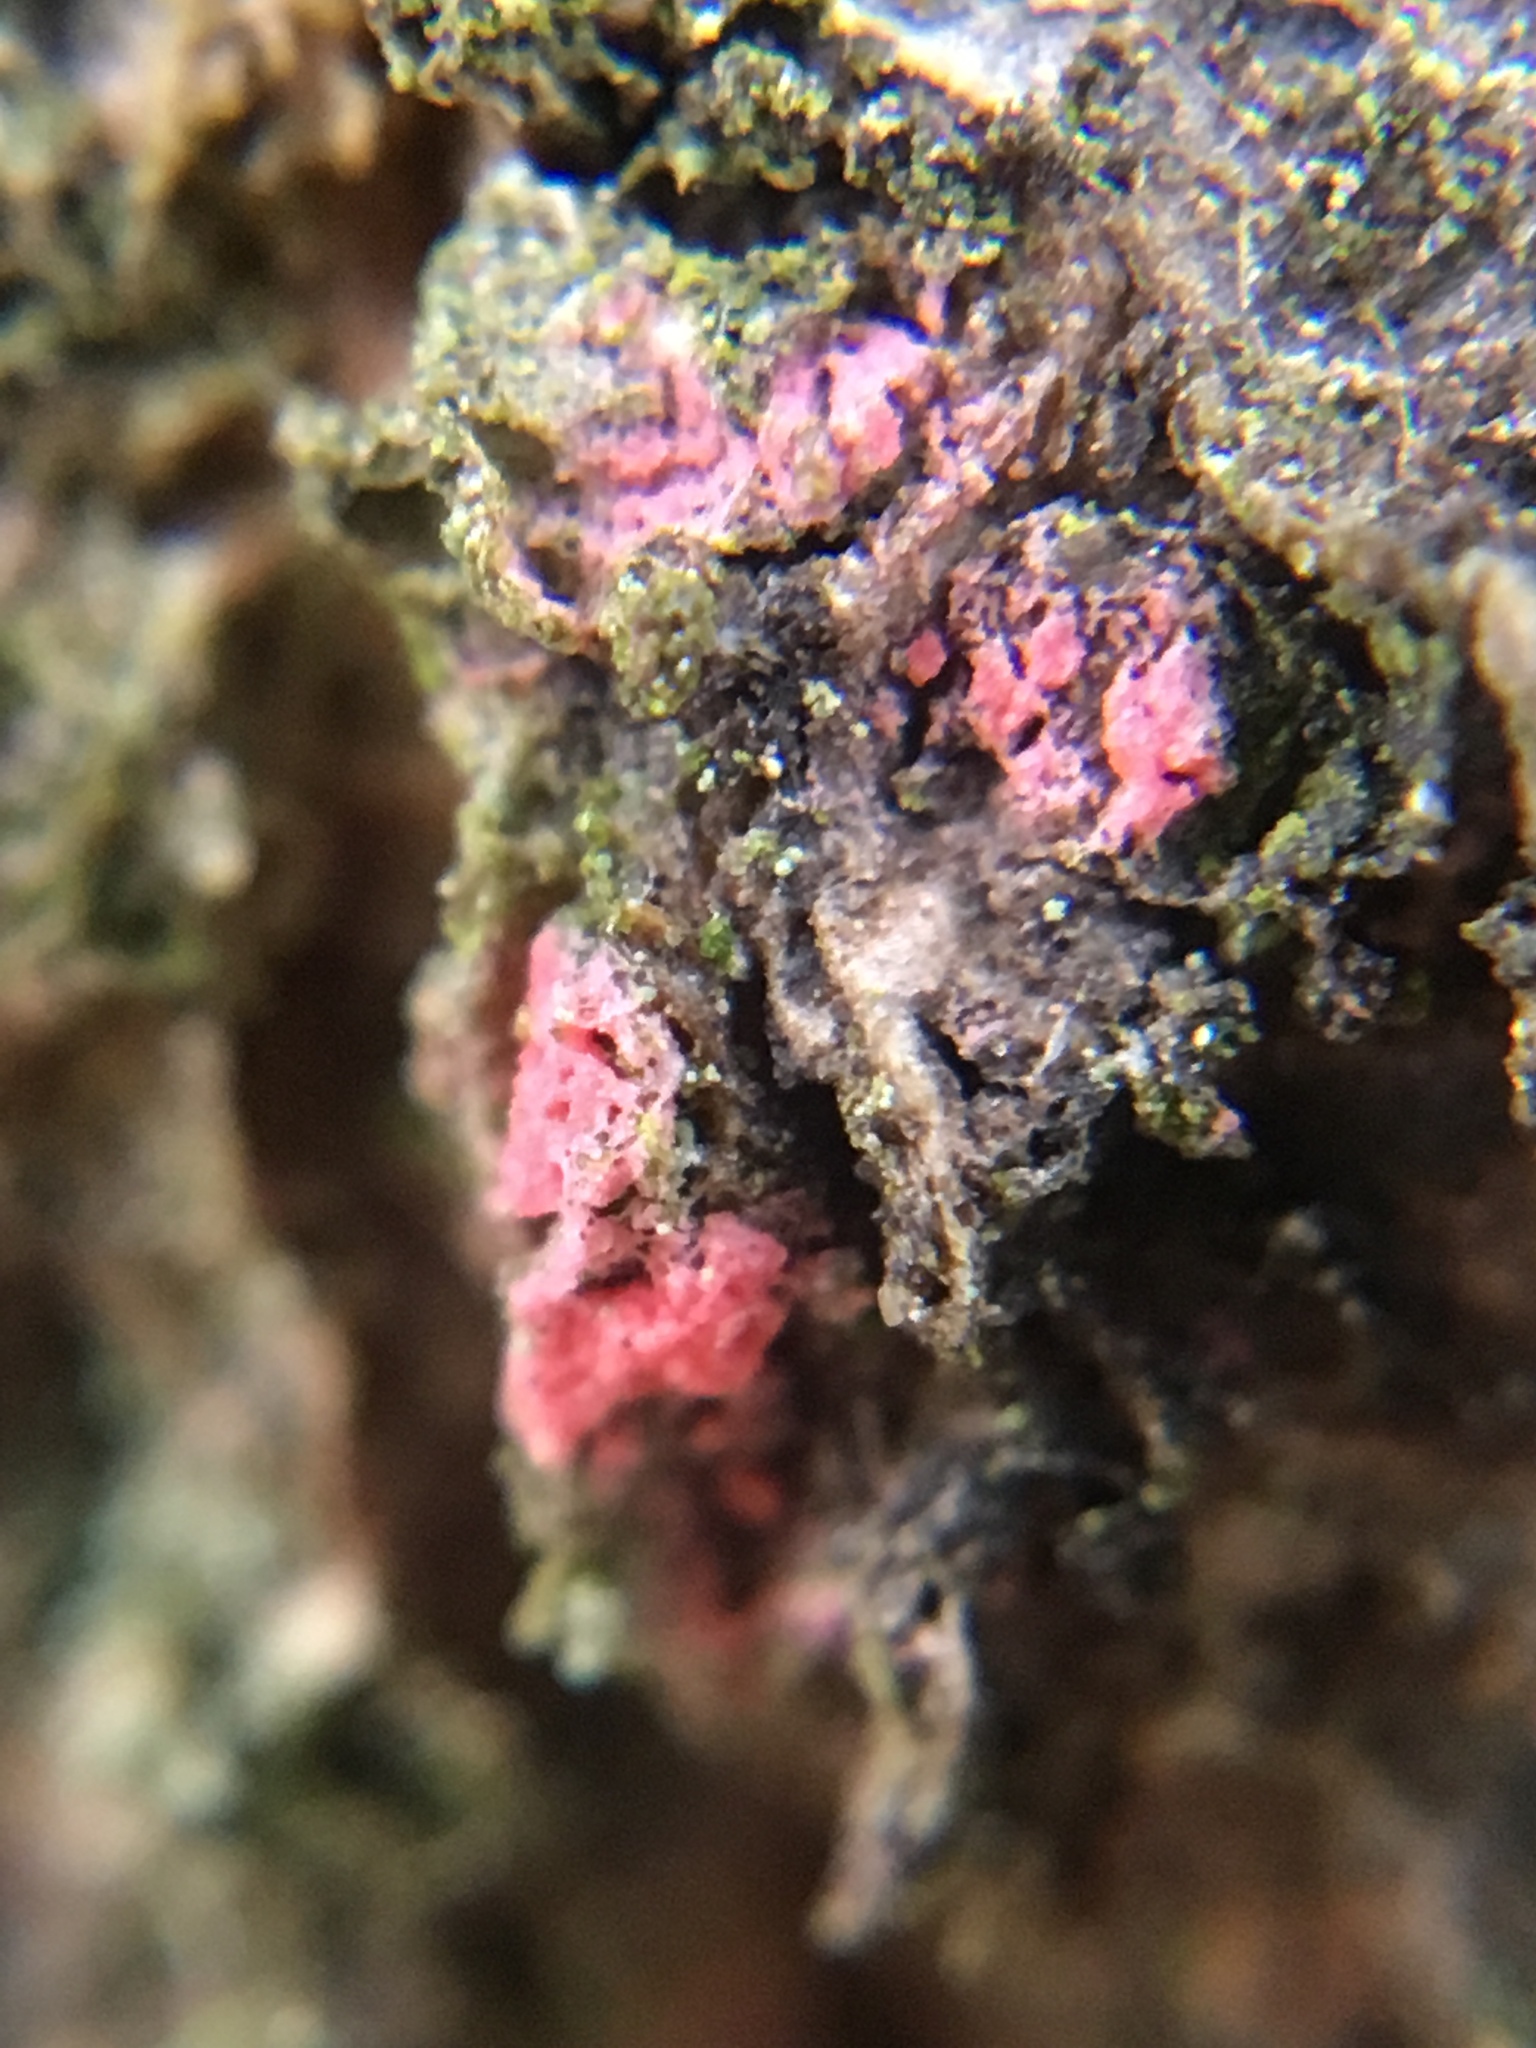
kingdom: Fungi
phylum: Ascomycota
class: Sordariomycetes
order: Hypocreales
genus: Illosporiopsis
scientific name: Illosporiopsis christiansenii
